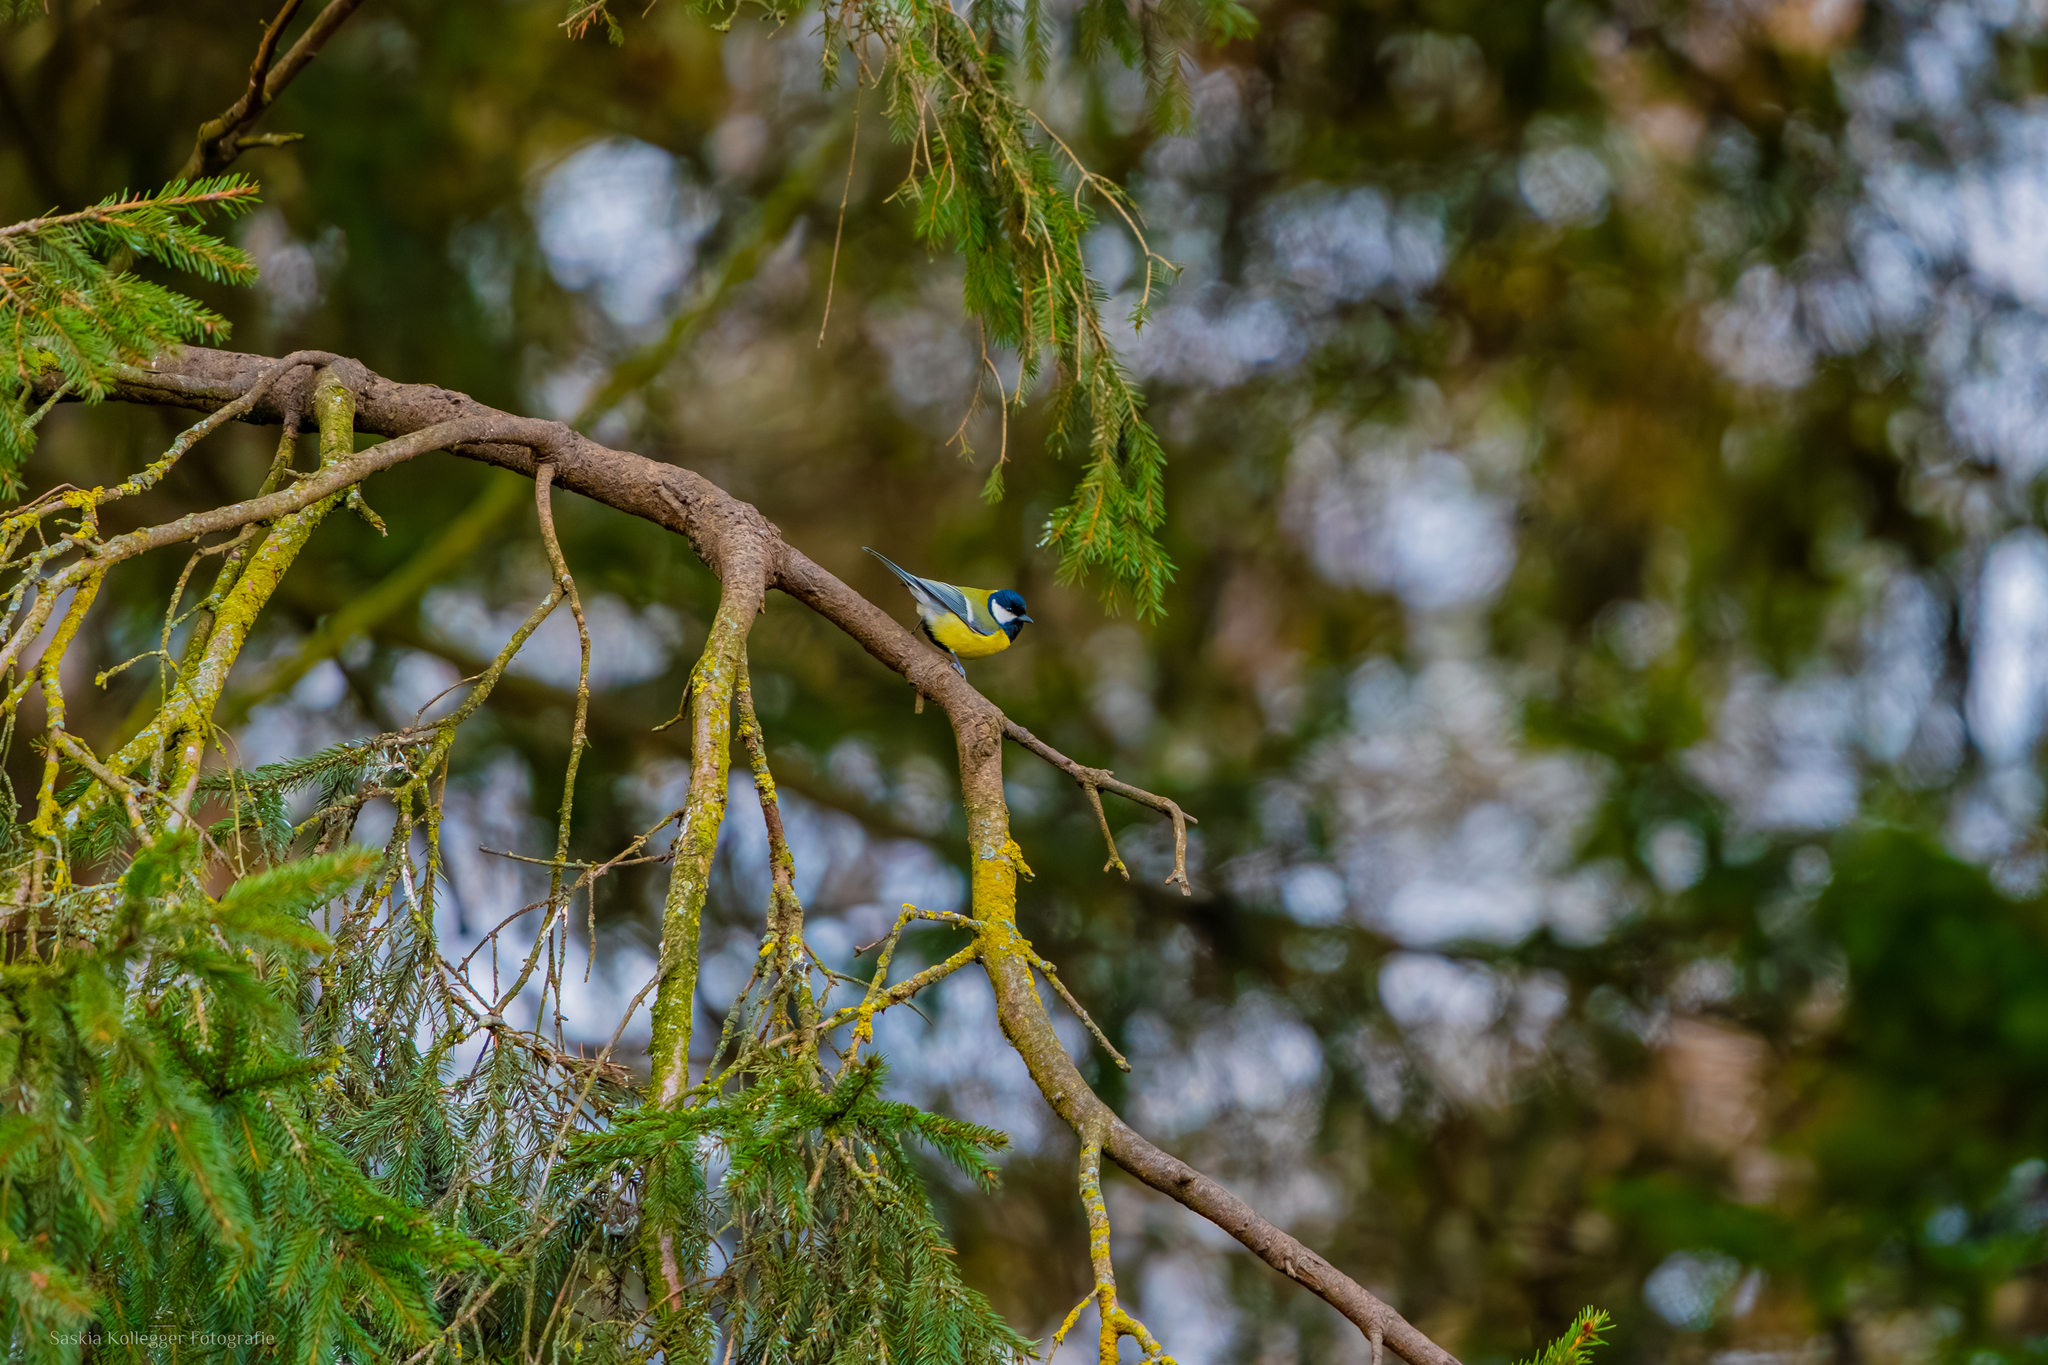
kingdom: Animalia
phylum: Chordata
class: Aves
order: Passeriformes
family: Paridae
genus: Parus
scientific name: Parus major
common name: Great tit
